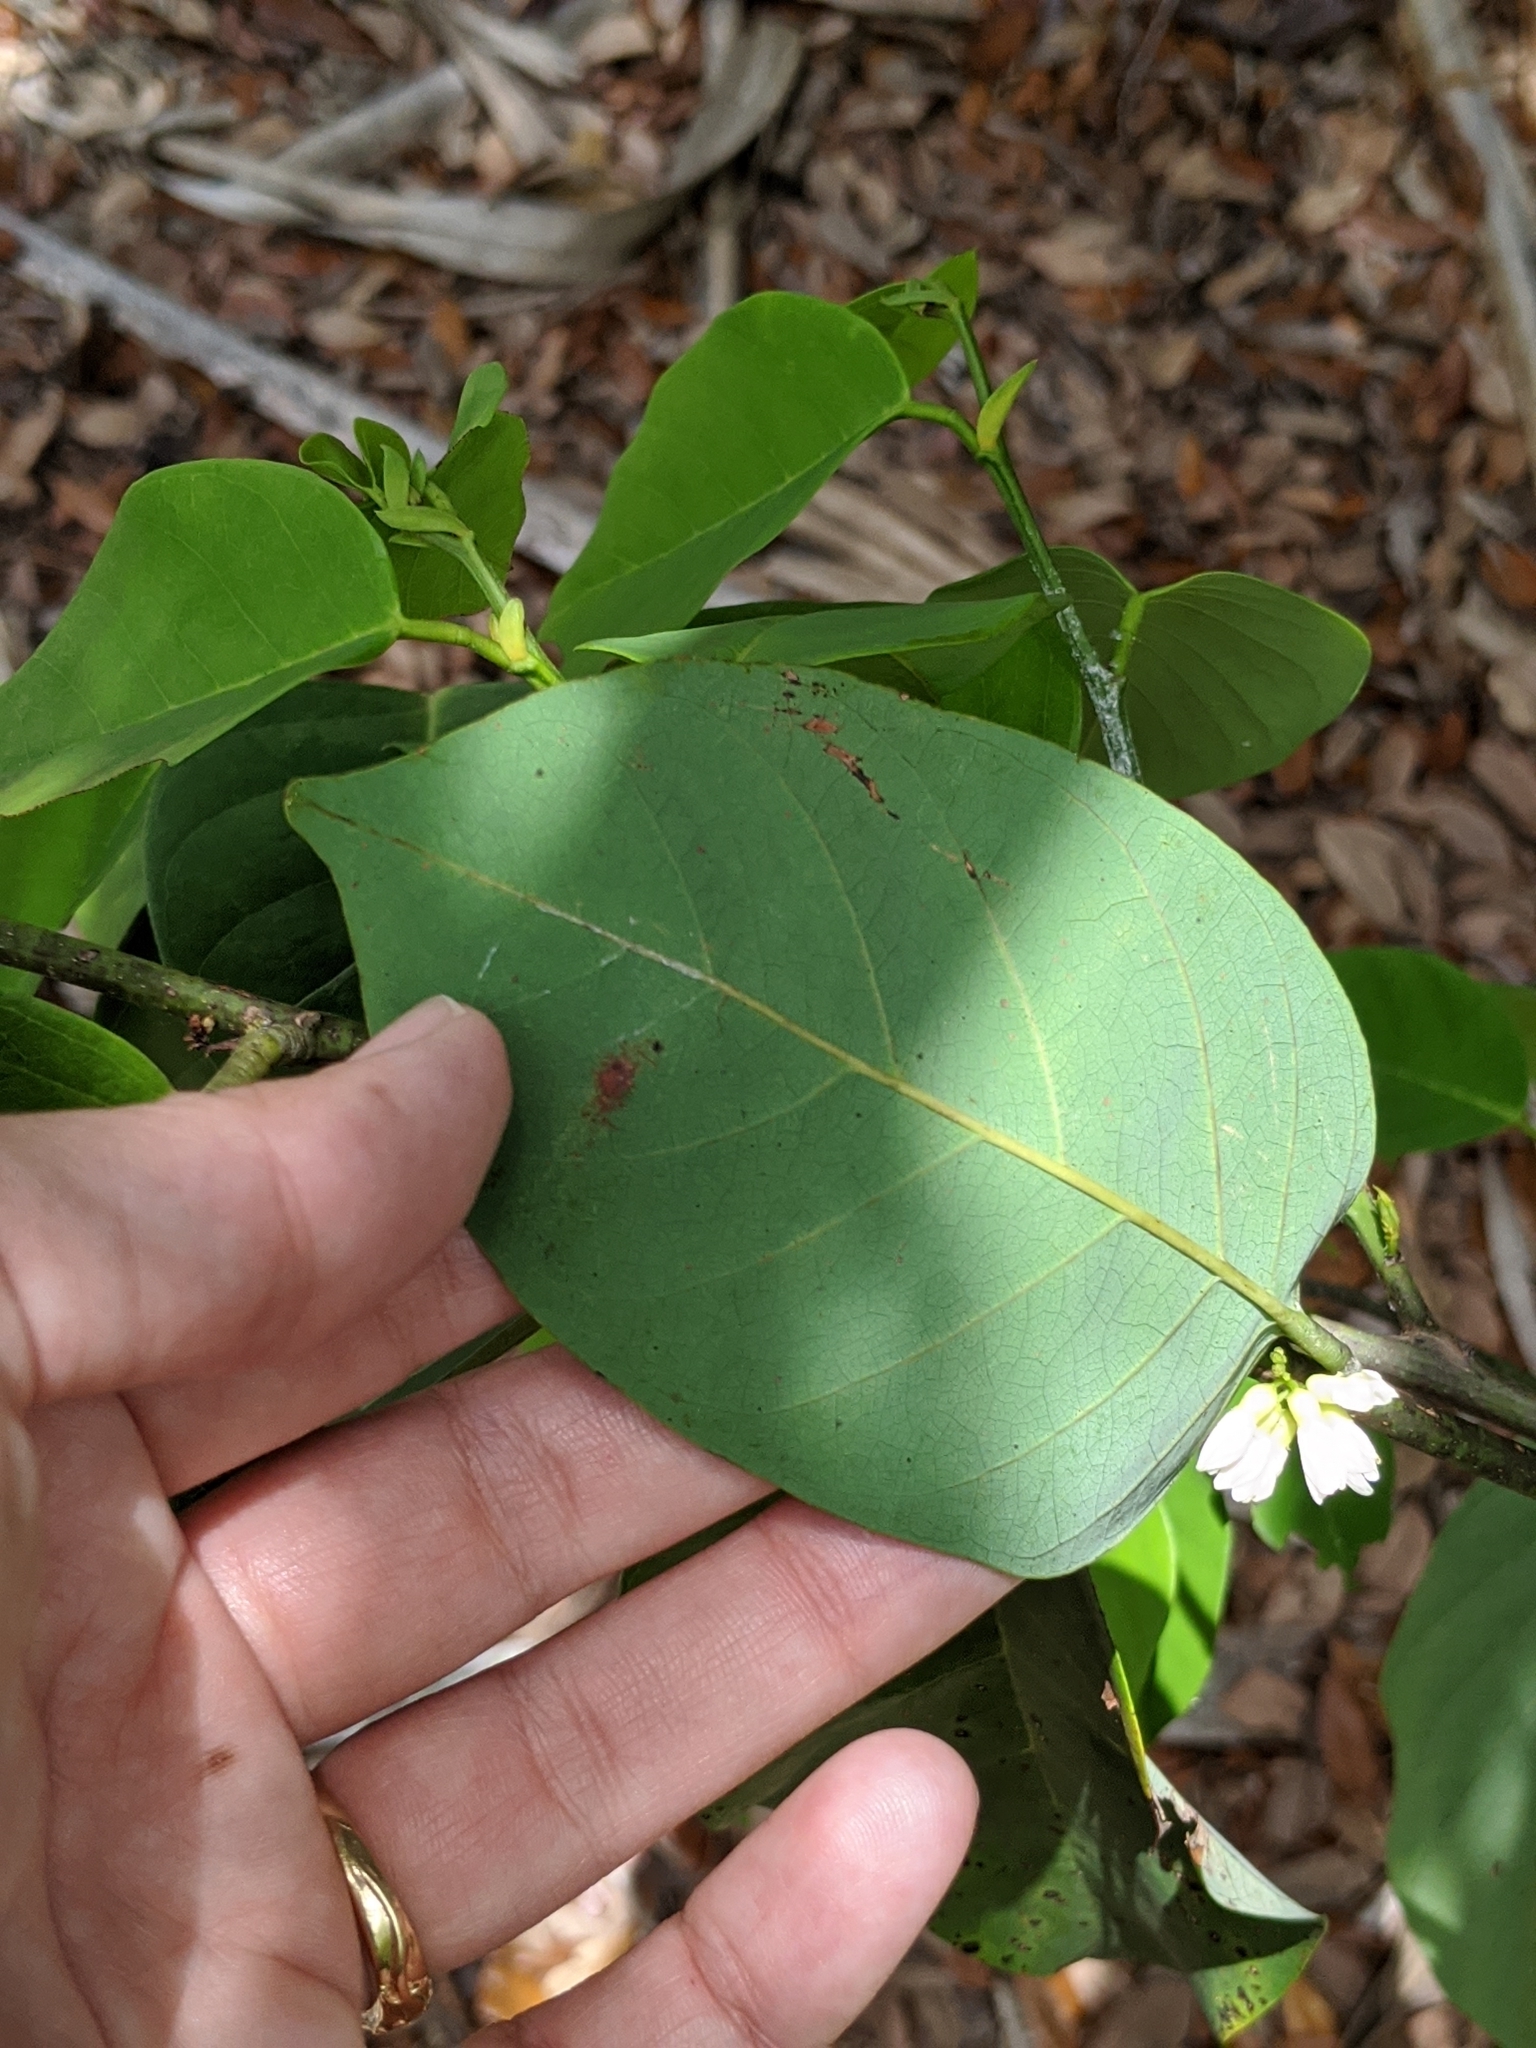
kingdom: Plantae
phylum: Tracheophyta
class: Magnoliopsida
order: Fabales
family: Fabaceae
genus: Dalbergia
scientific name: Dalbergia ecastaphyllum
